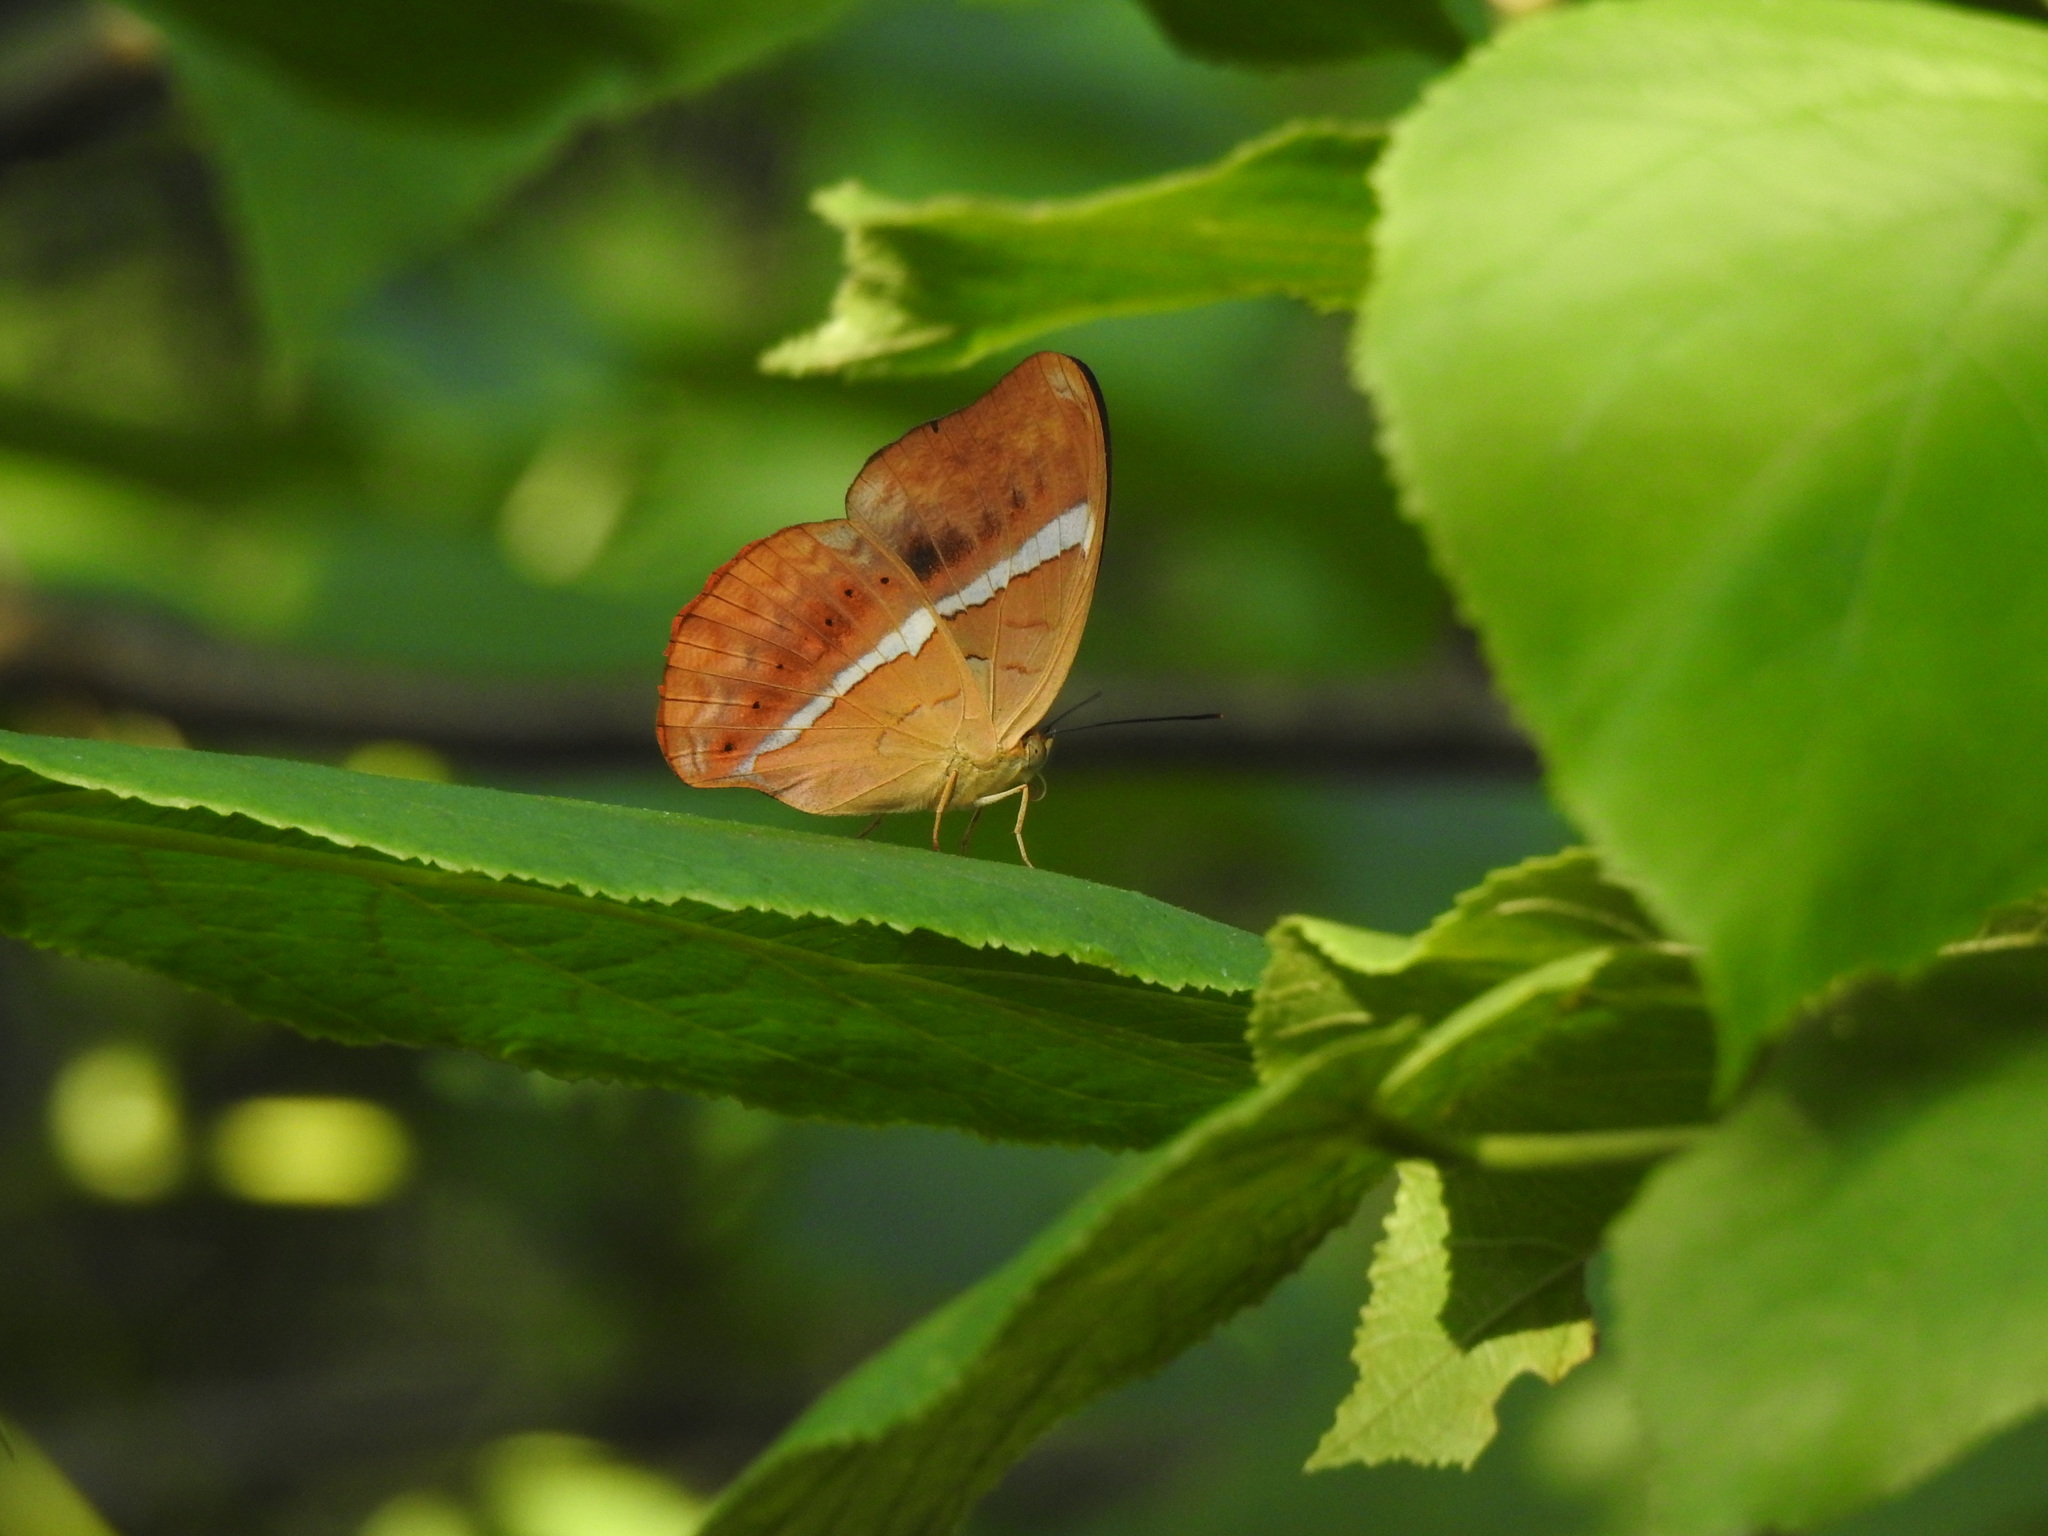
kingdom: Animalia
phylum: Arthropoda
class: Insecta
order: Lepidoptera
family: Nymphalidae
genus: Cirrochroa
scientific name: Cirrochroa thais
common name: Tamil yeoman
